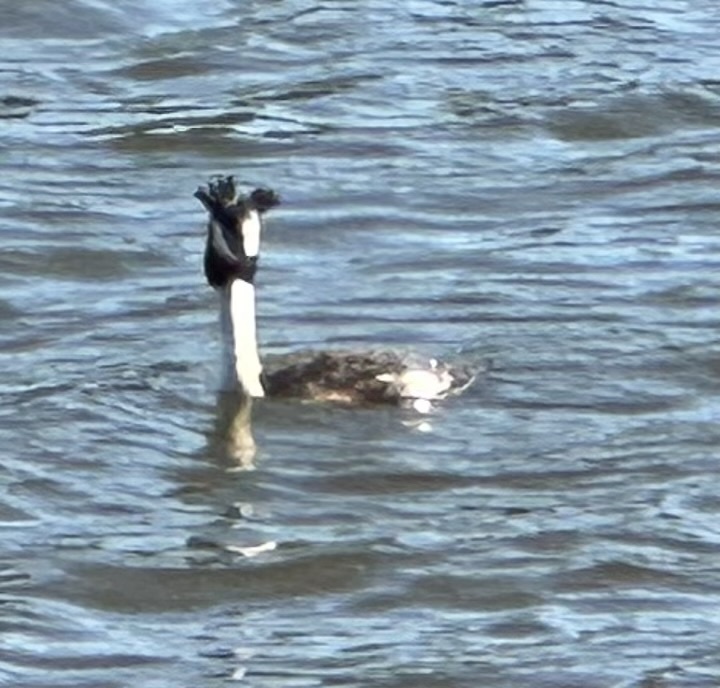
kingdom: Animalia
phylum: Chordata
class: Aves
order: Podicipediformes
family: Podicipedidae
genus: Podiceps
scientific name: Podiceps cristatus
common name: Great crested grebe
